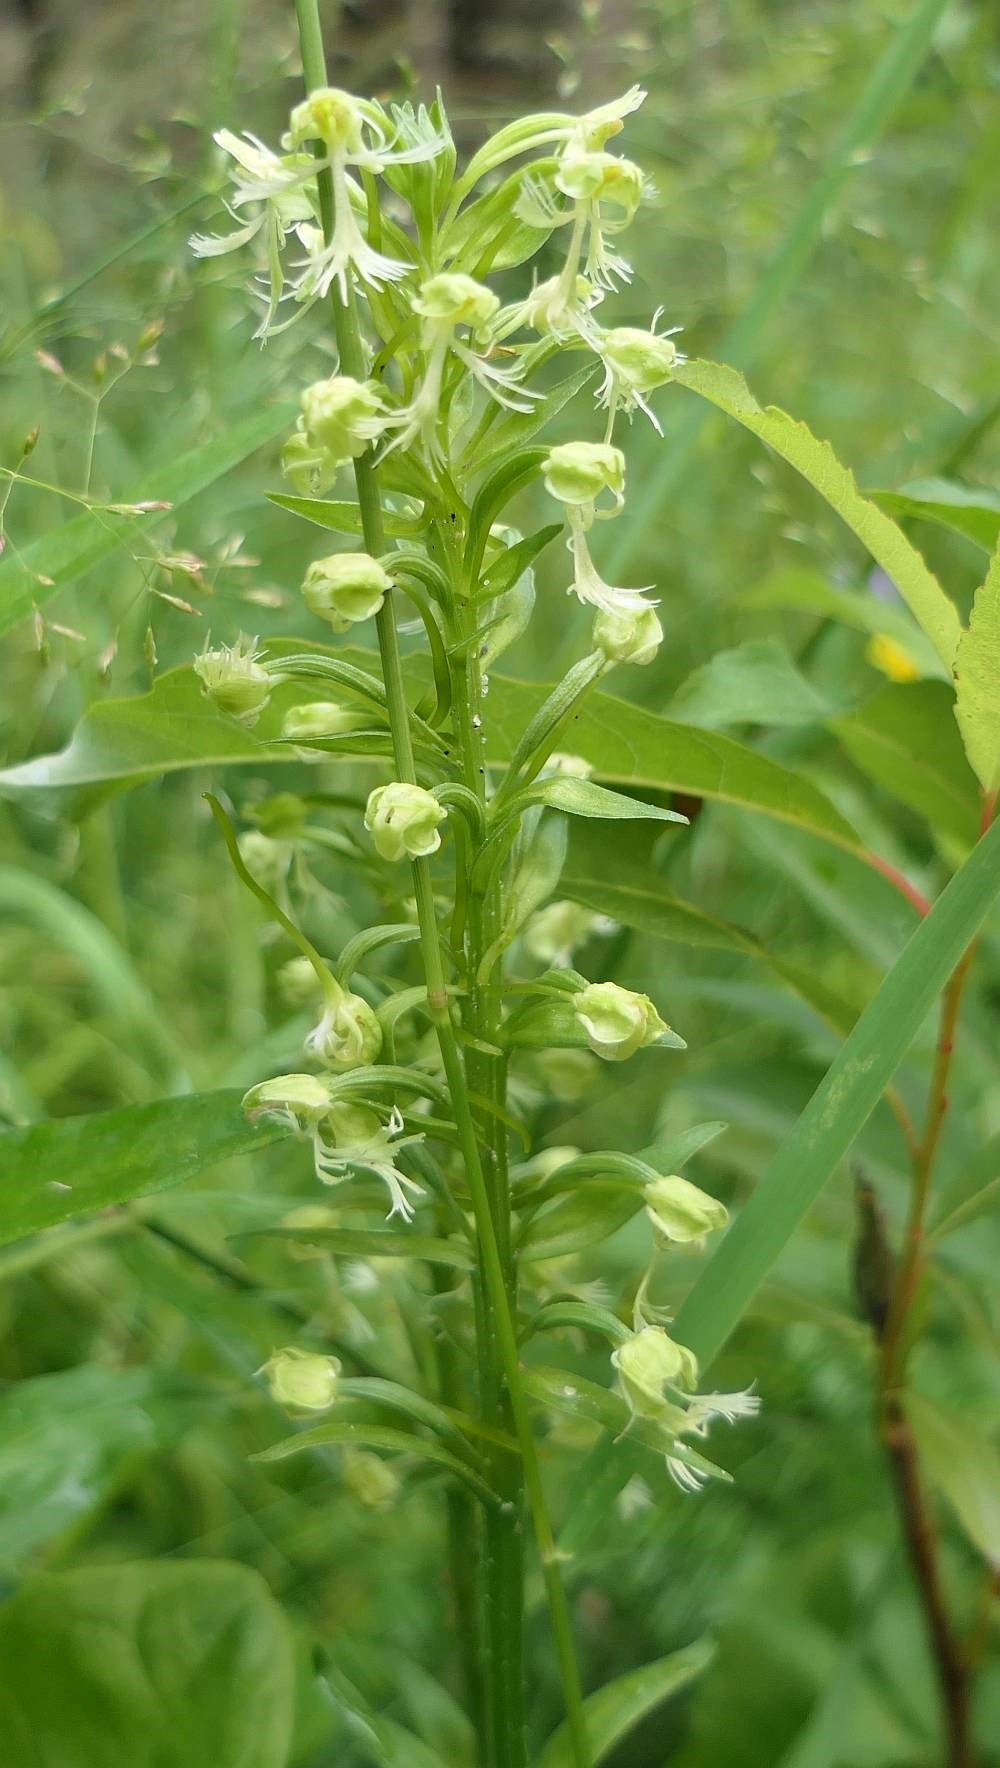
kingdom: Plantae
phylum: Tracheophyta
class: Liliopsida
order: Asparagales
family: Orchidaceae
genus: Platanthera
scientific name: Platanthera lacera
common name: Green fringed orchid
